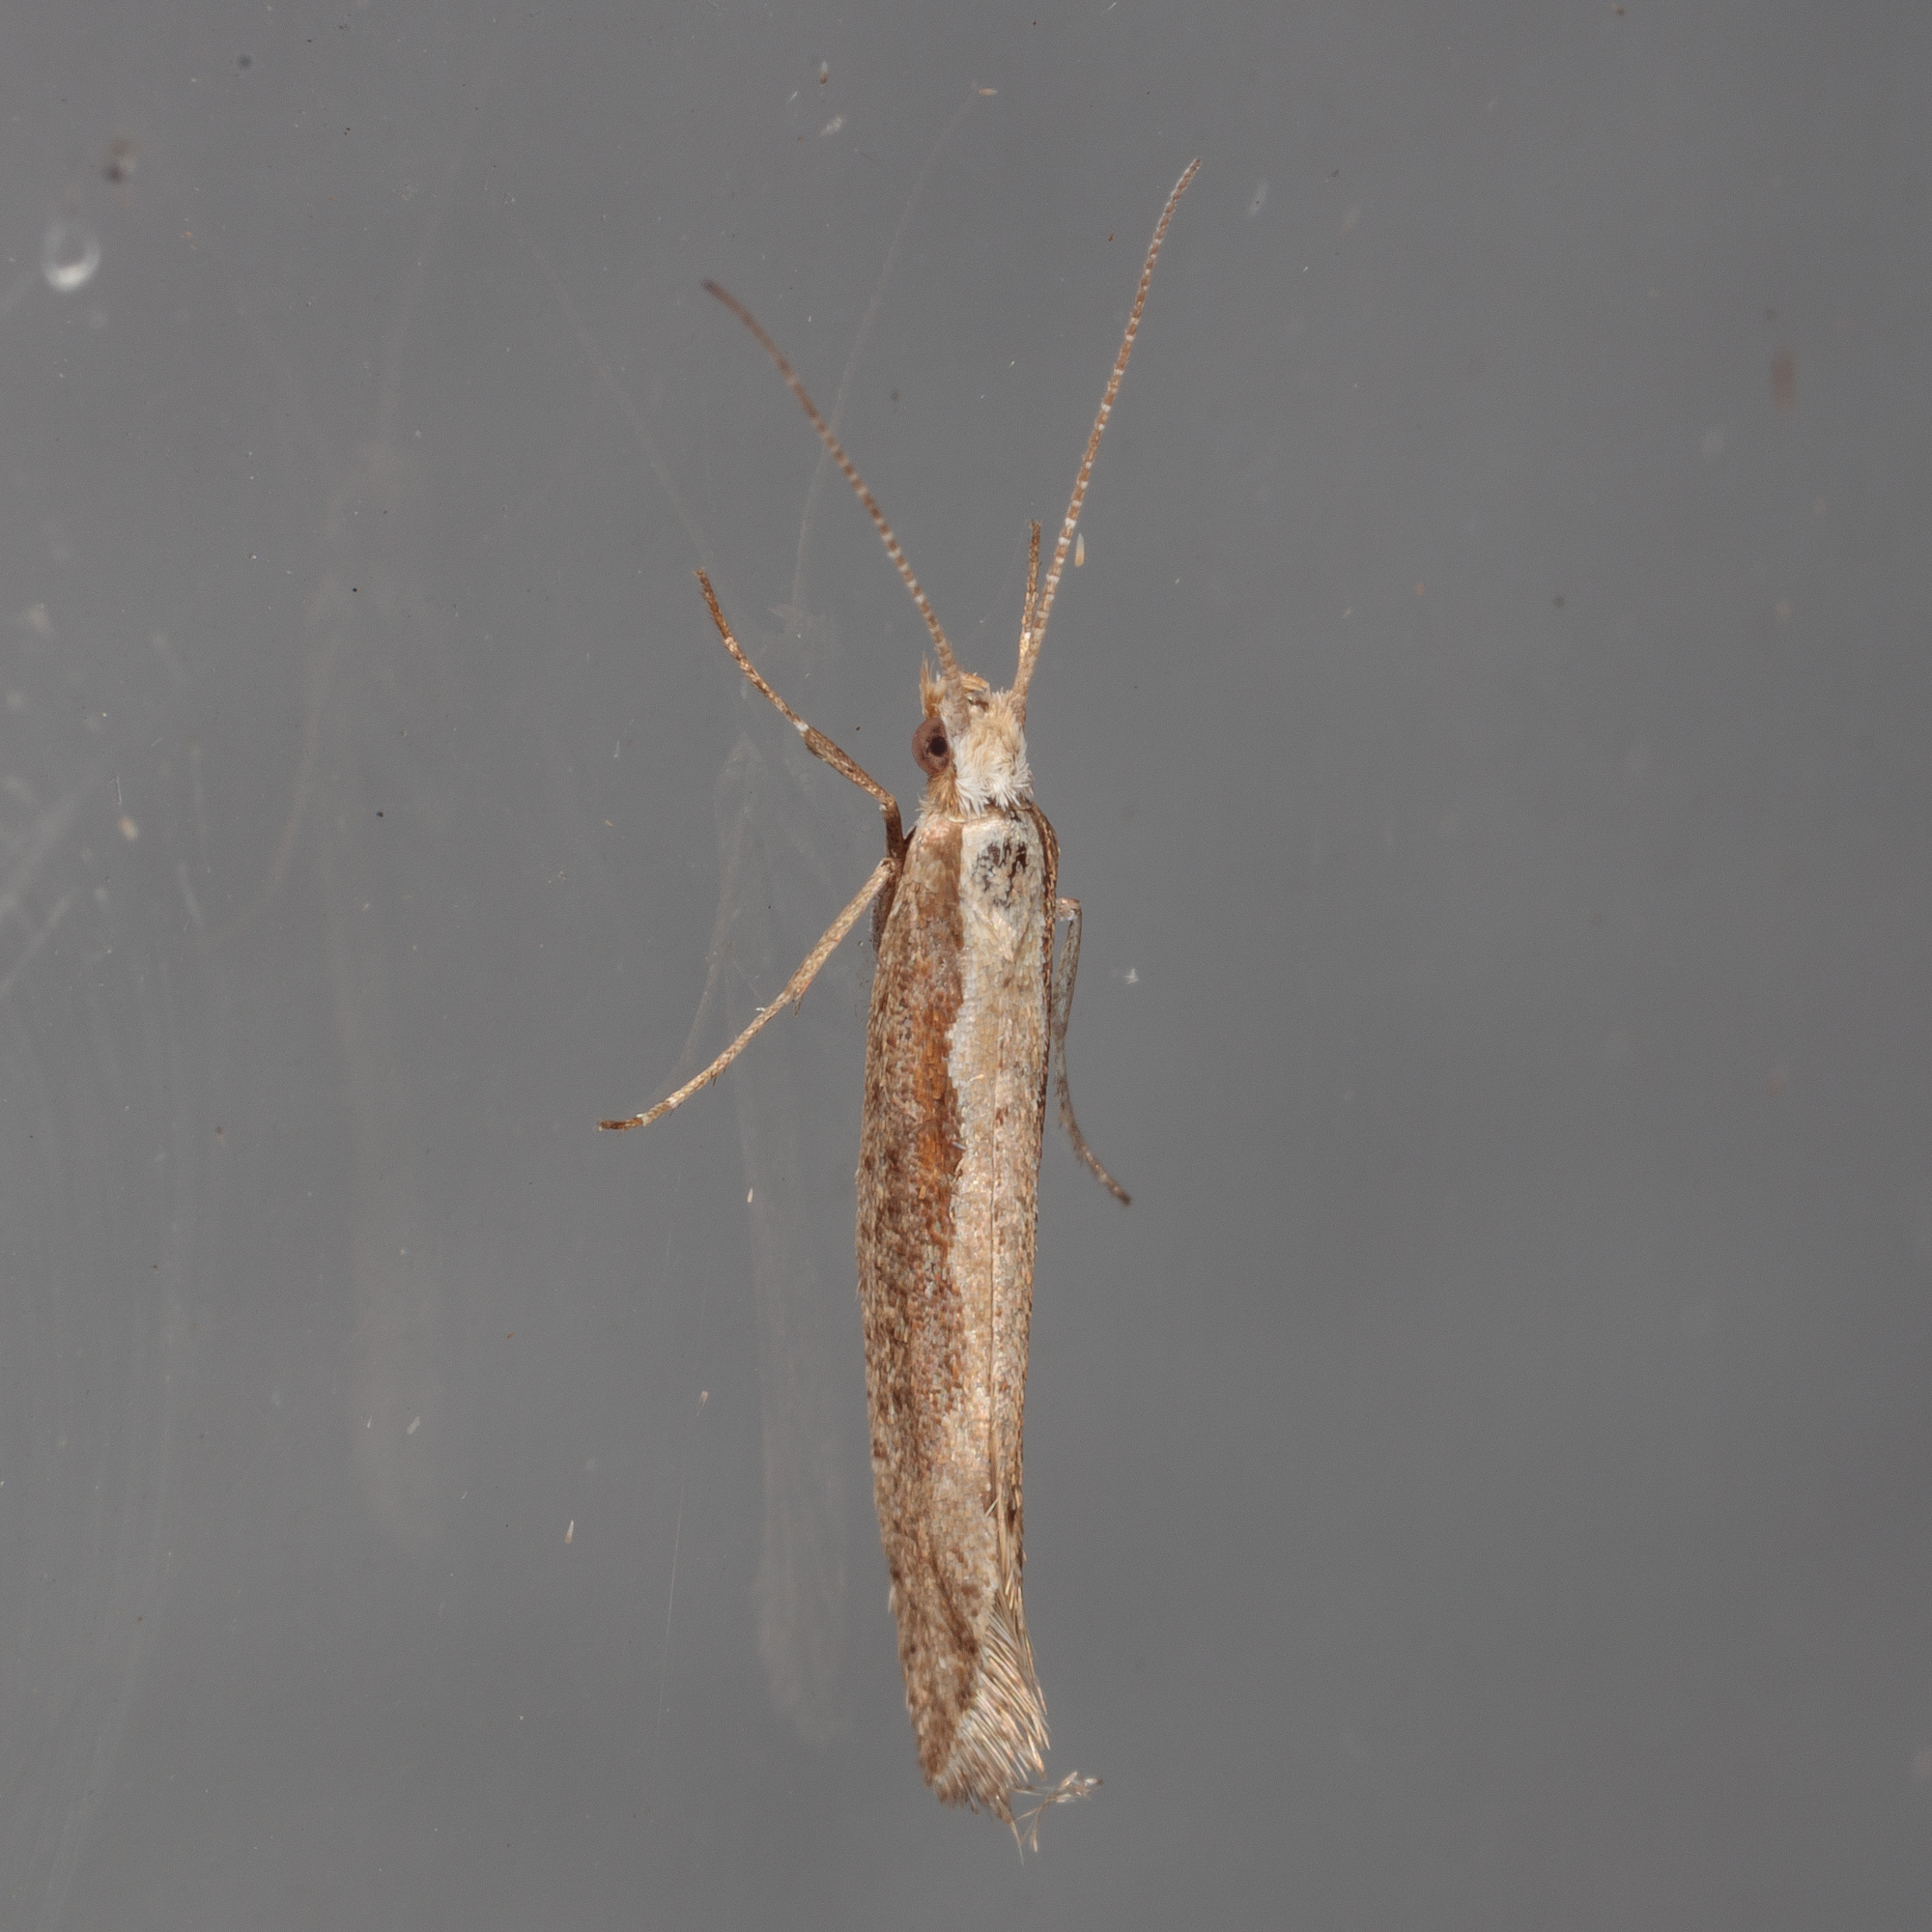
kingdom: Animalia
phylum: Arthropoda
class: Insecta
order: Lepidoptera
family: Plutellidae
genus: Plutella
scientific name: Plutella xylostella
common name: Diamond-back moth
